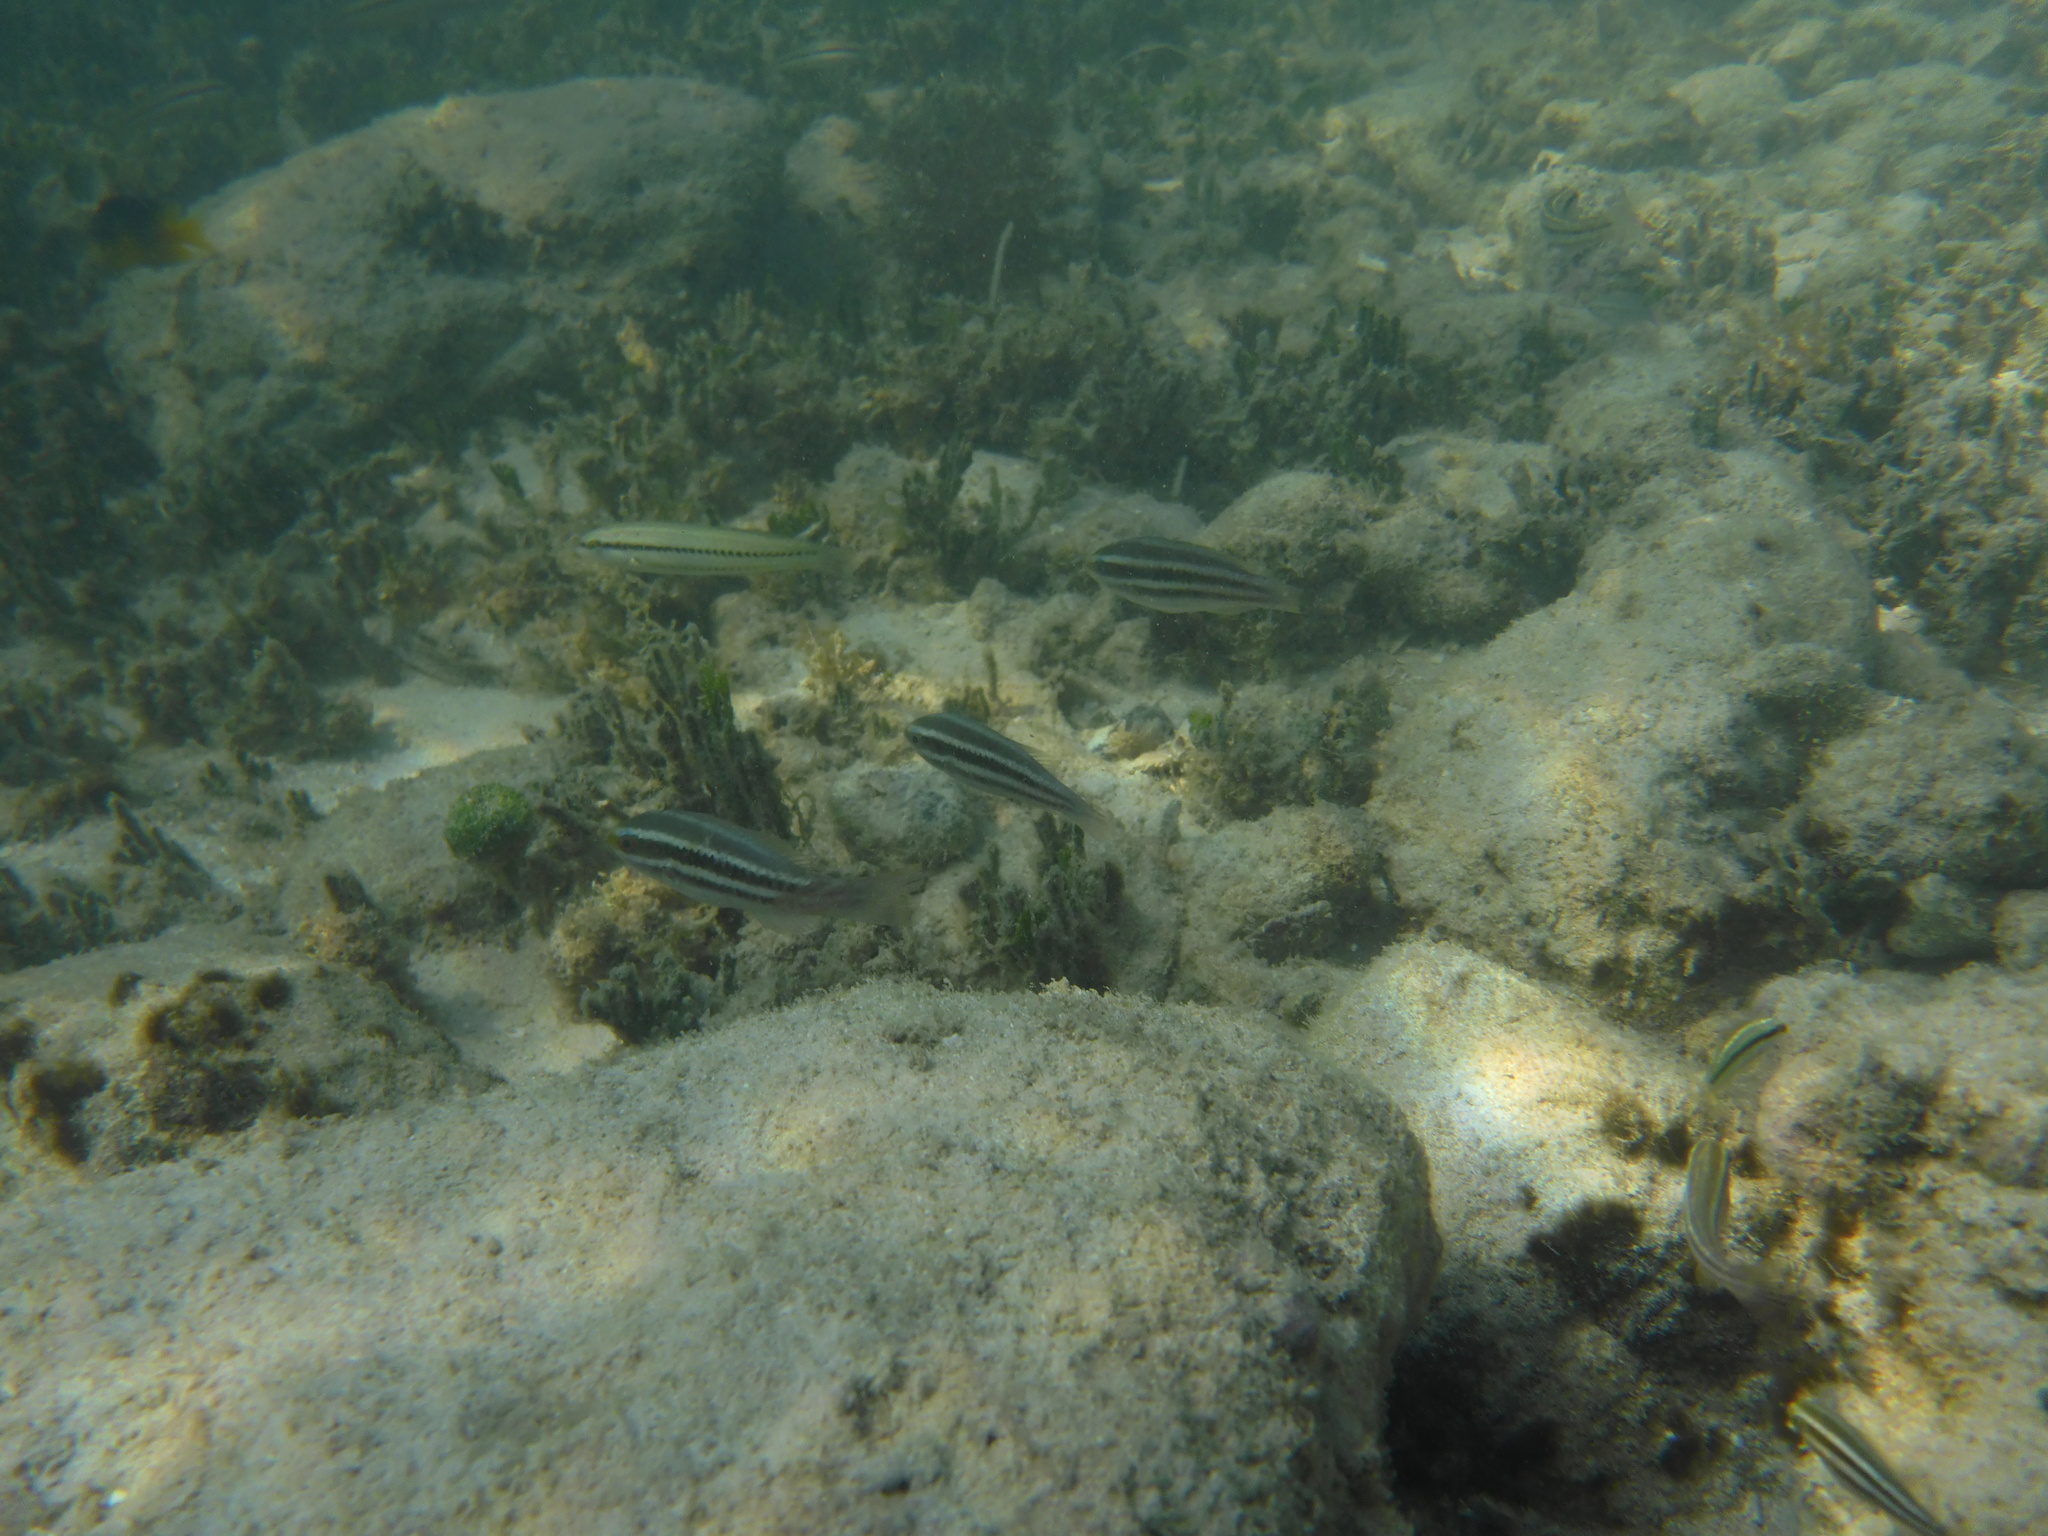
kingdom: Animalia
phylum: Chordata
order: Perciformes
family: Scaridae
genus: Scarus
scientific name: Scarus iseri
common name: Striped parrotfish
